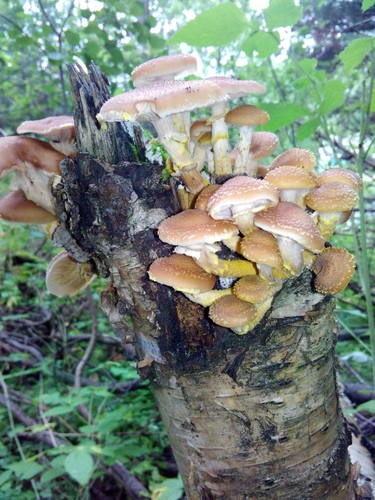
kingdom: Fungi
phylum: Basidiomycota
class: Agaricomycetes
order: Agaricales
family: Physalacriaceae
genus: Armillaria
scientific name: Armillaria gallica
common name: Bulbous honey fungus
